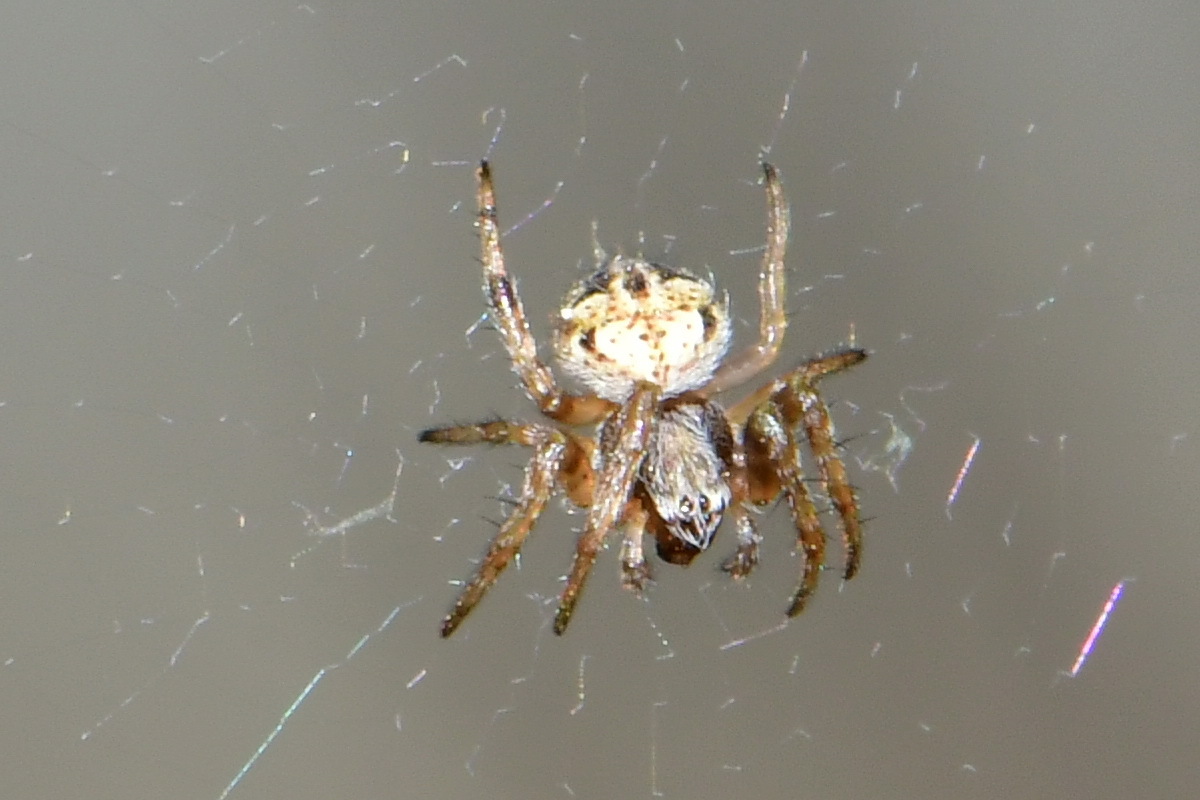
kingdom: Animalia
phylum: Arthropoda
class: Arachnida
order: Araneae
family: Araneidae
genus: Agalenatea
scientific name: Agalenatea redii
